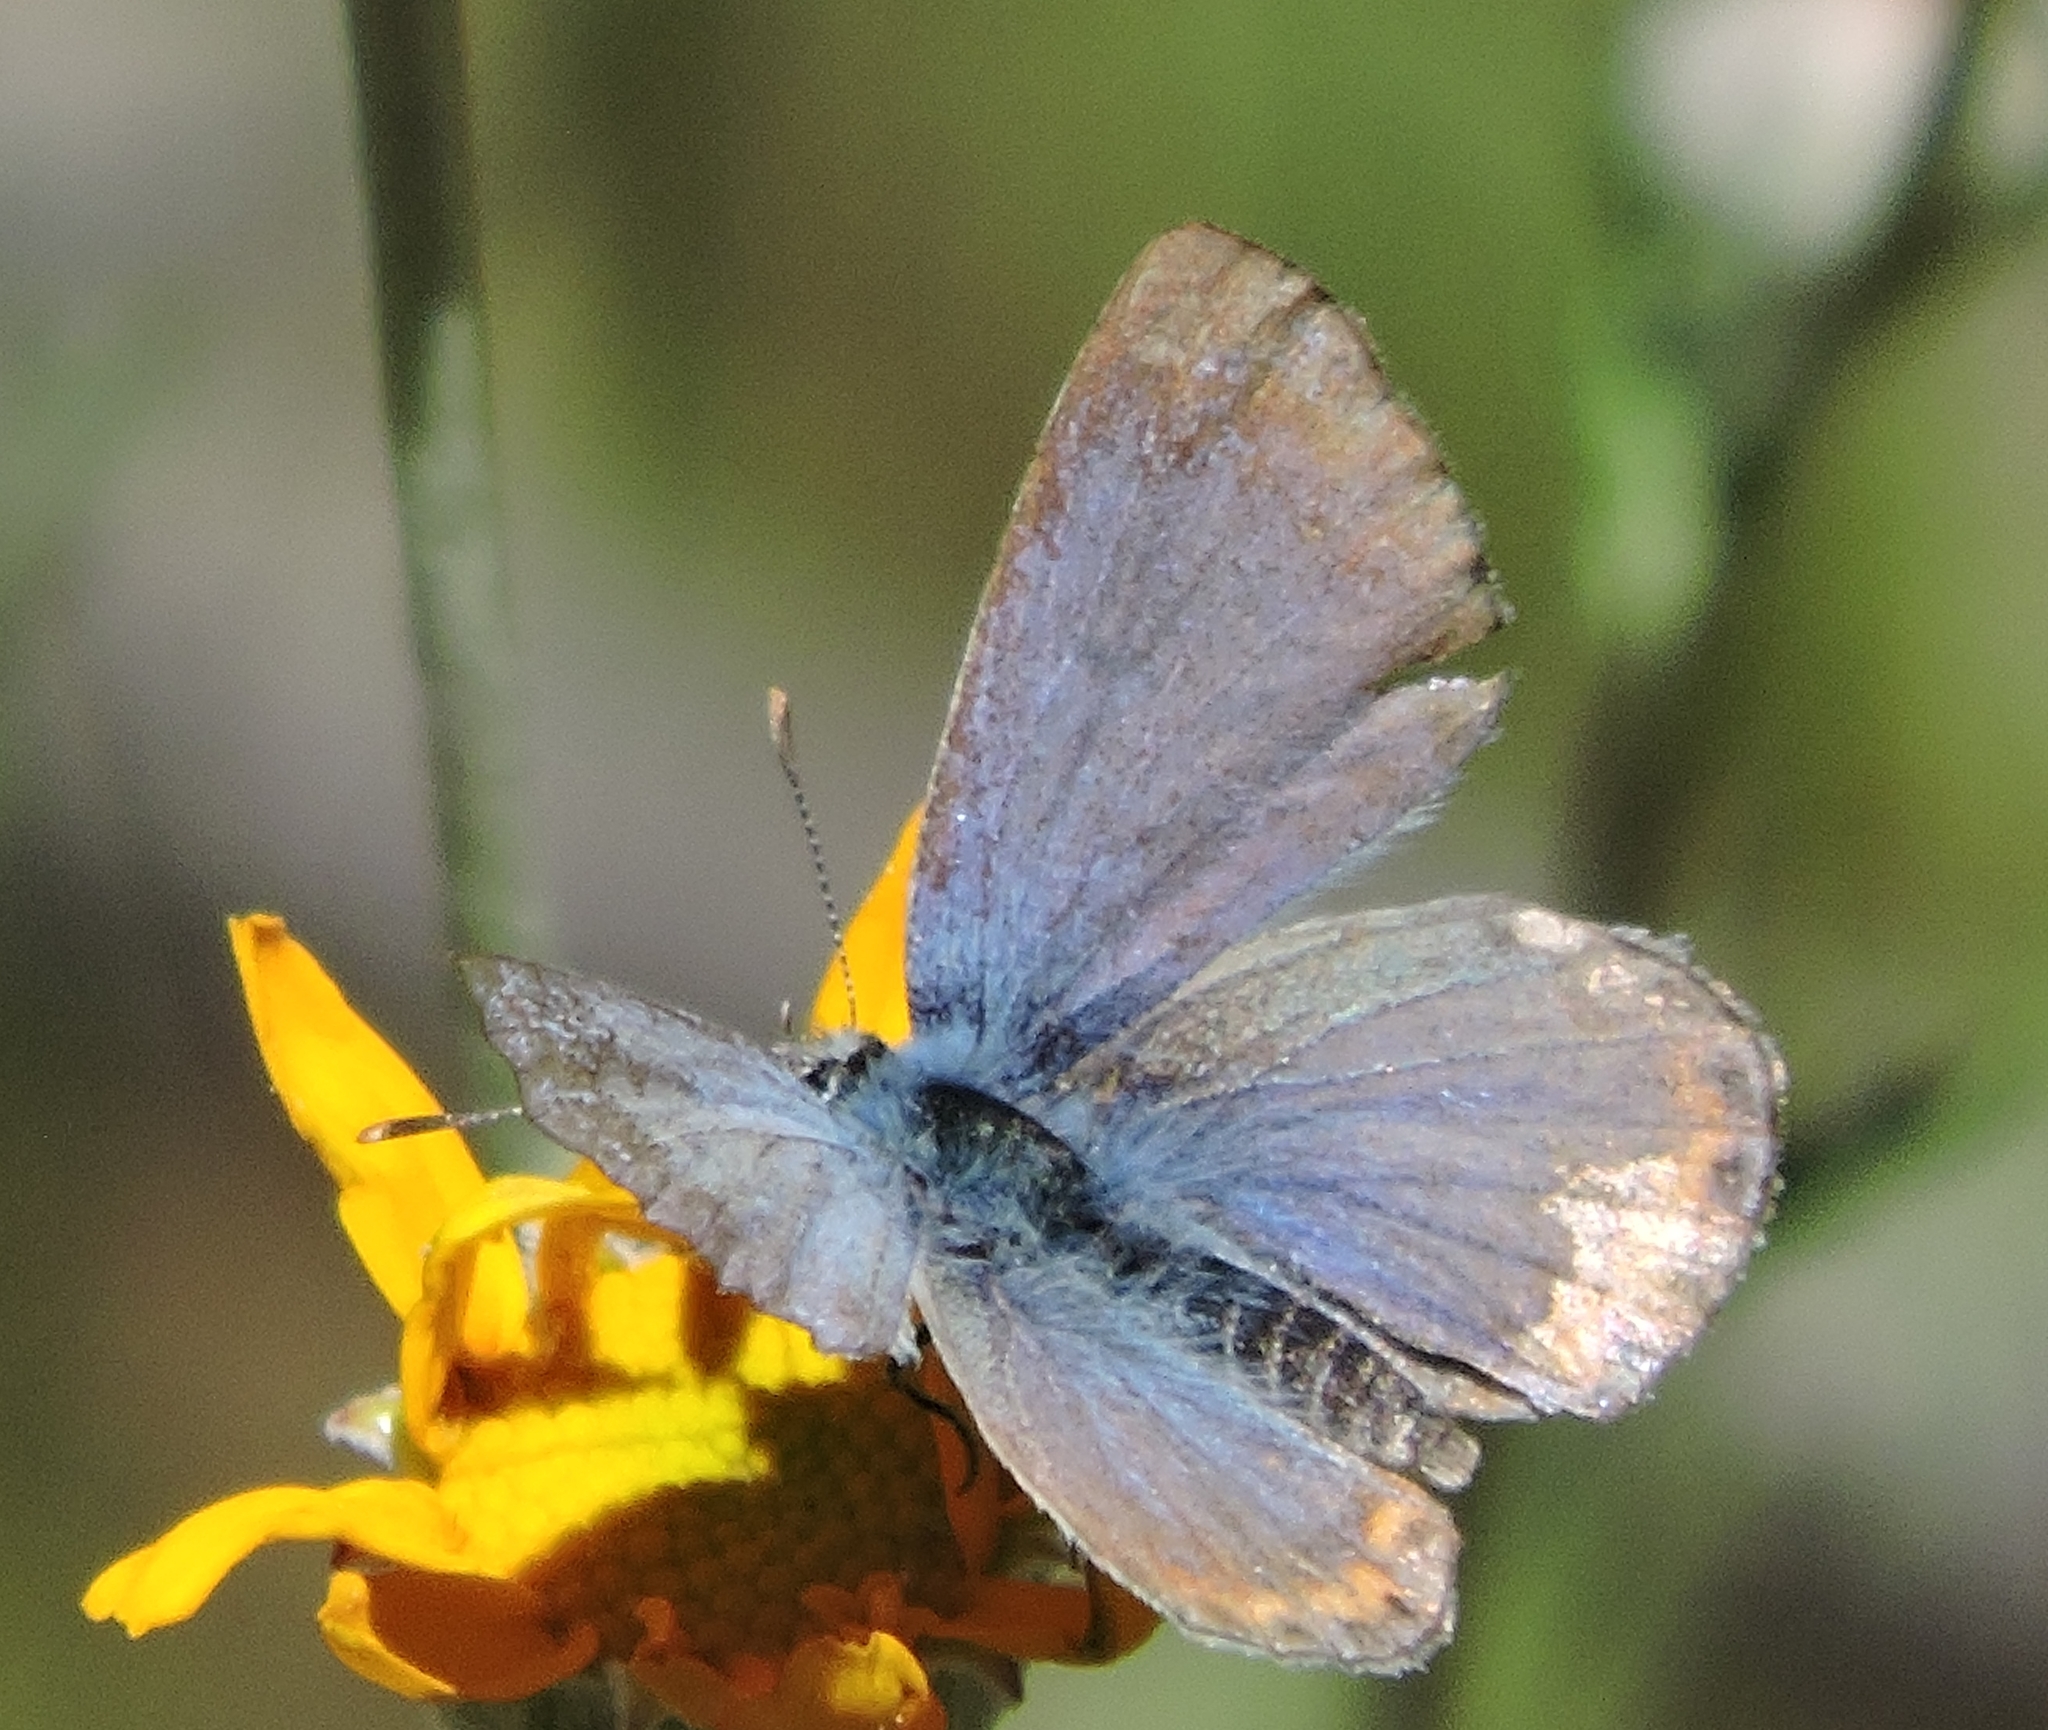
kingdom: Animalia
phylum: Arthropoda
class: Insecta
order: Lepidoptera
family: Lycaenidae
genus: Icaricia
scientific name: Icaricia acmon
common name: Acmon blue
